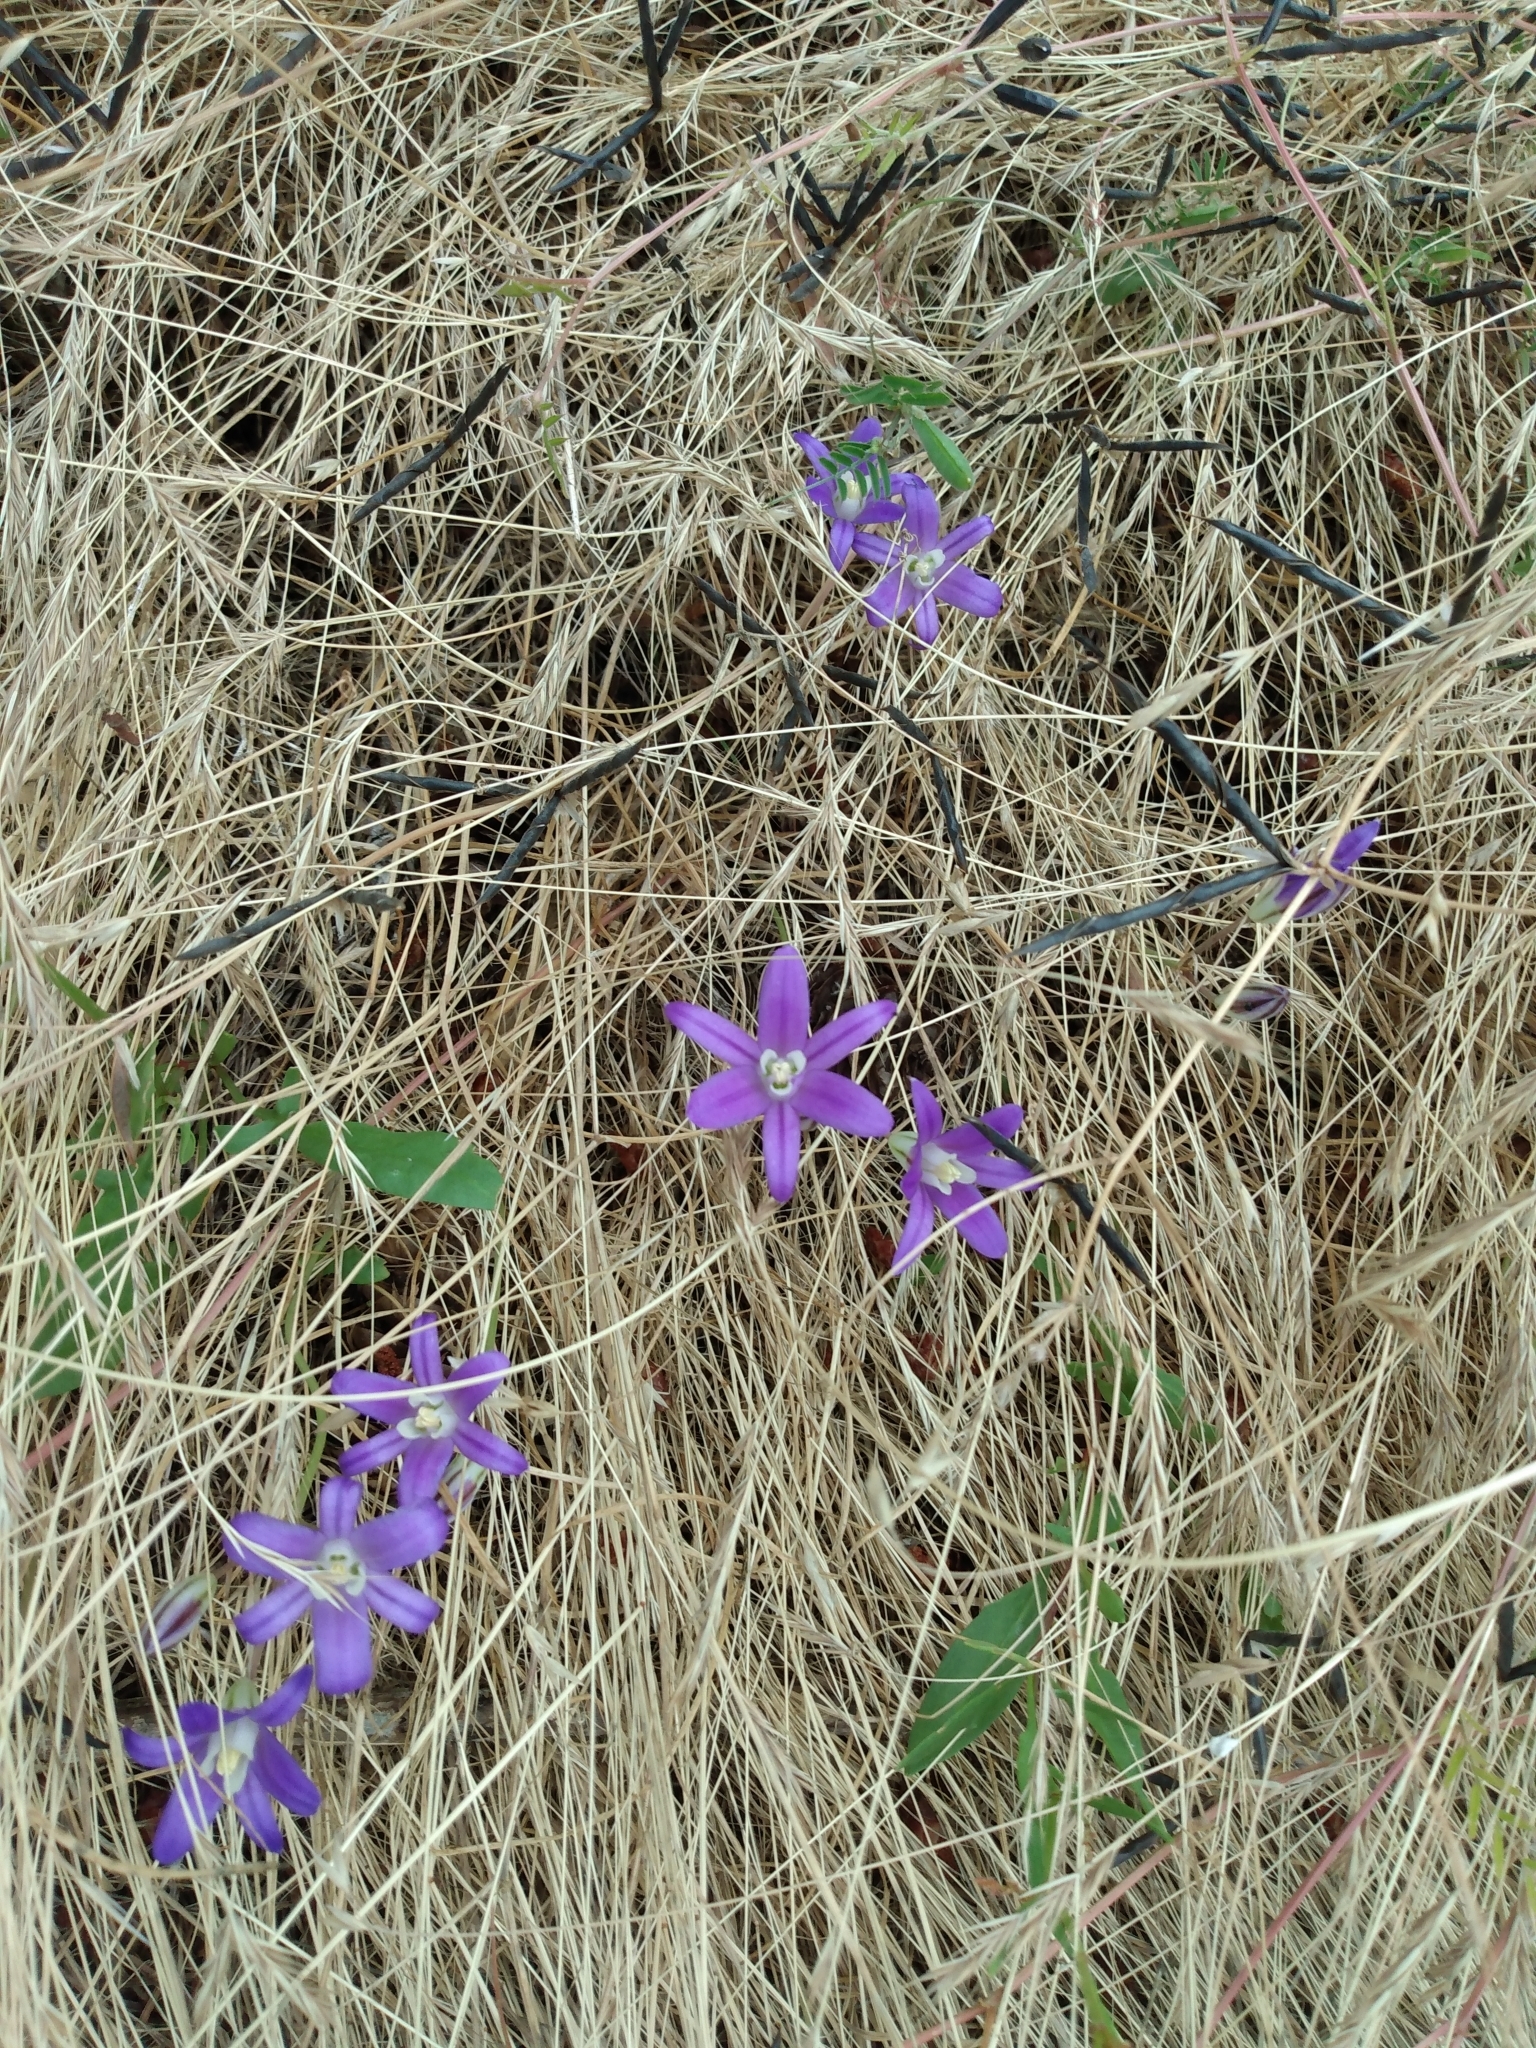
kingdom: Plantae
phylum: Tracheophyta
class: Liliopsida
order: Asparagales
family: Asparagaceae
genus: Brodiaea
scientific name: Brodiaea coronaria
